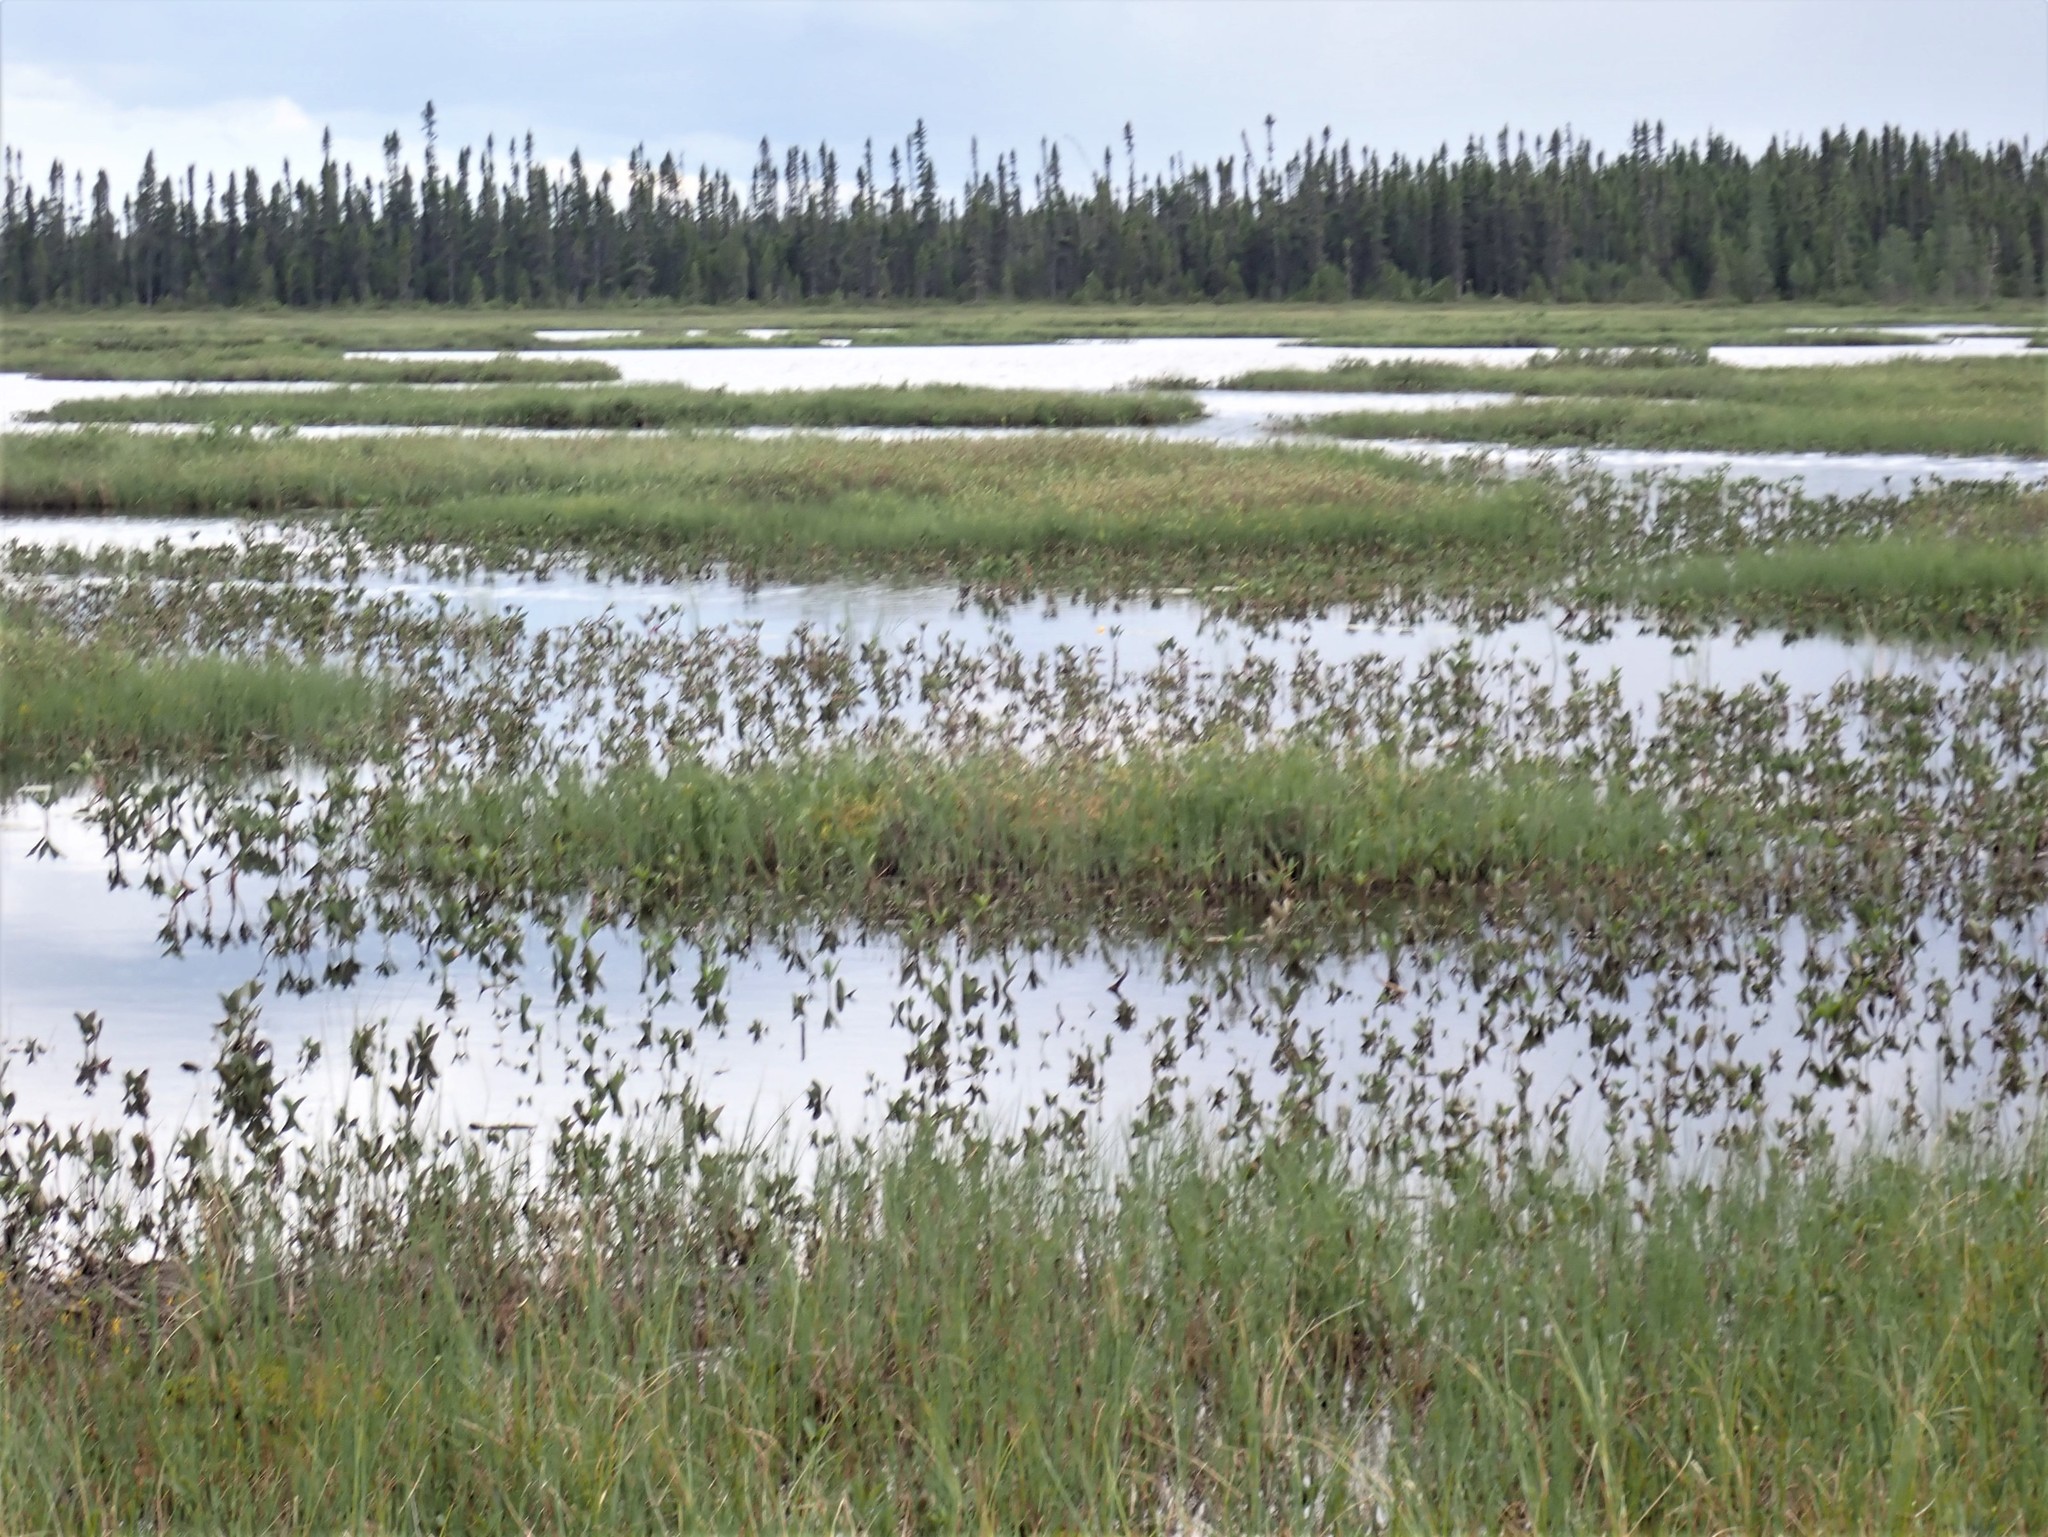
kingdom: Plantae
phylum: Tracheophyta
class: Magnoliopsida
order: Asterales
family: Menyanthaceae
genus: Menyanthes
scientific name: Menyanthes trifoliata
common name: Bogbean
